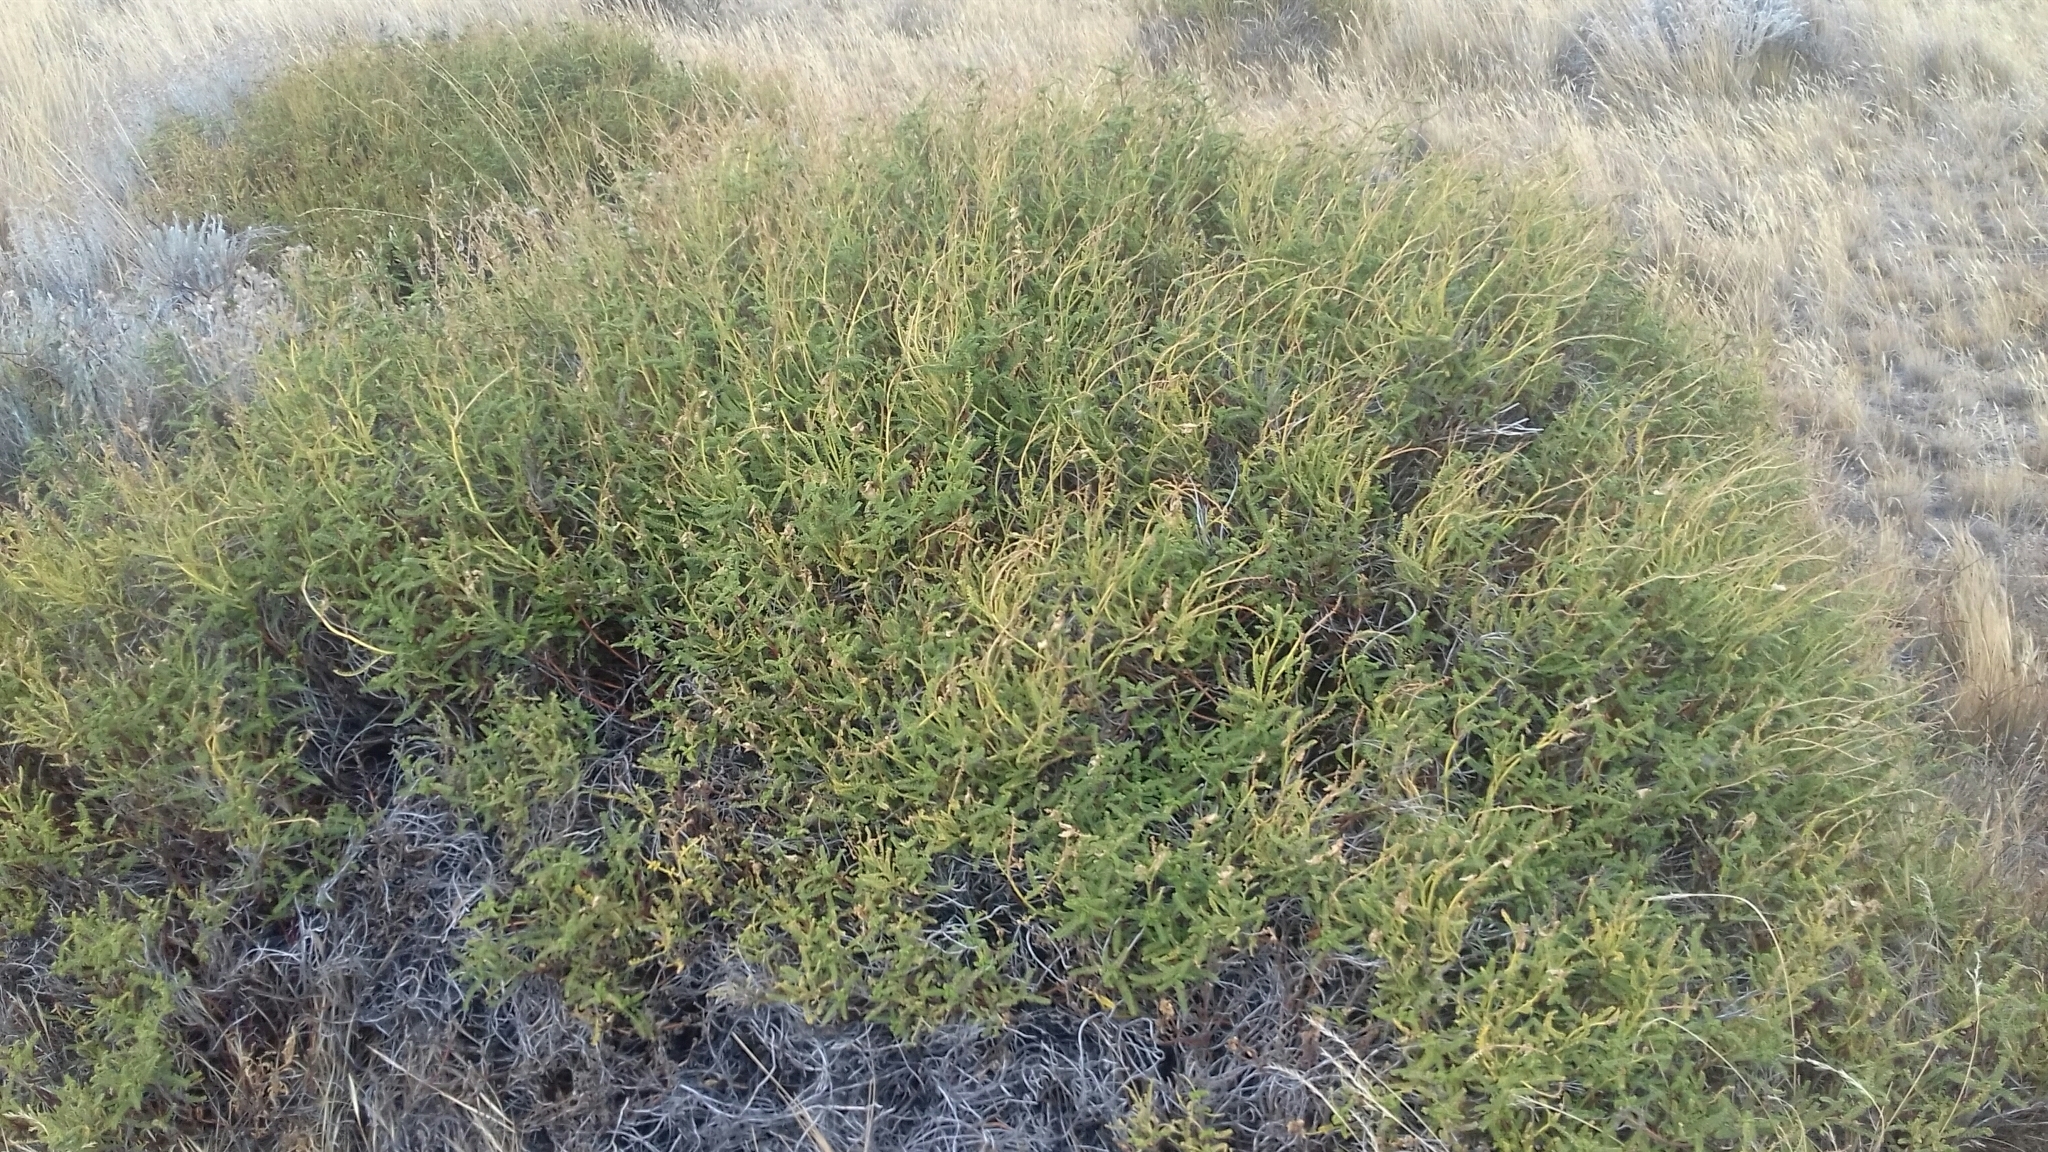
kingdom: Plantae
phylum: Tracheophyta
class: Magnoliopsida
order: Fabales
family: Fabaceae
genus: Adesmia
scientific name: Adesmia boronioides
